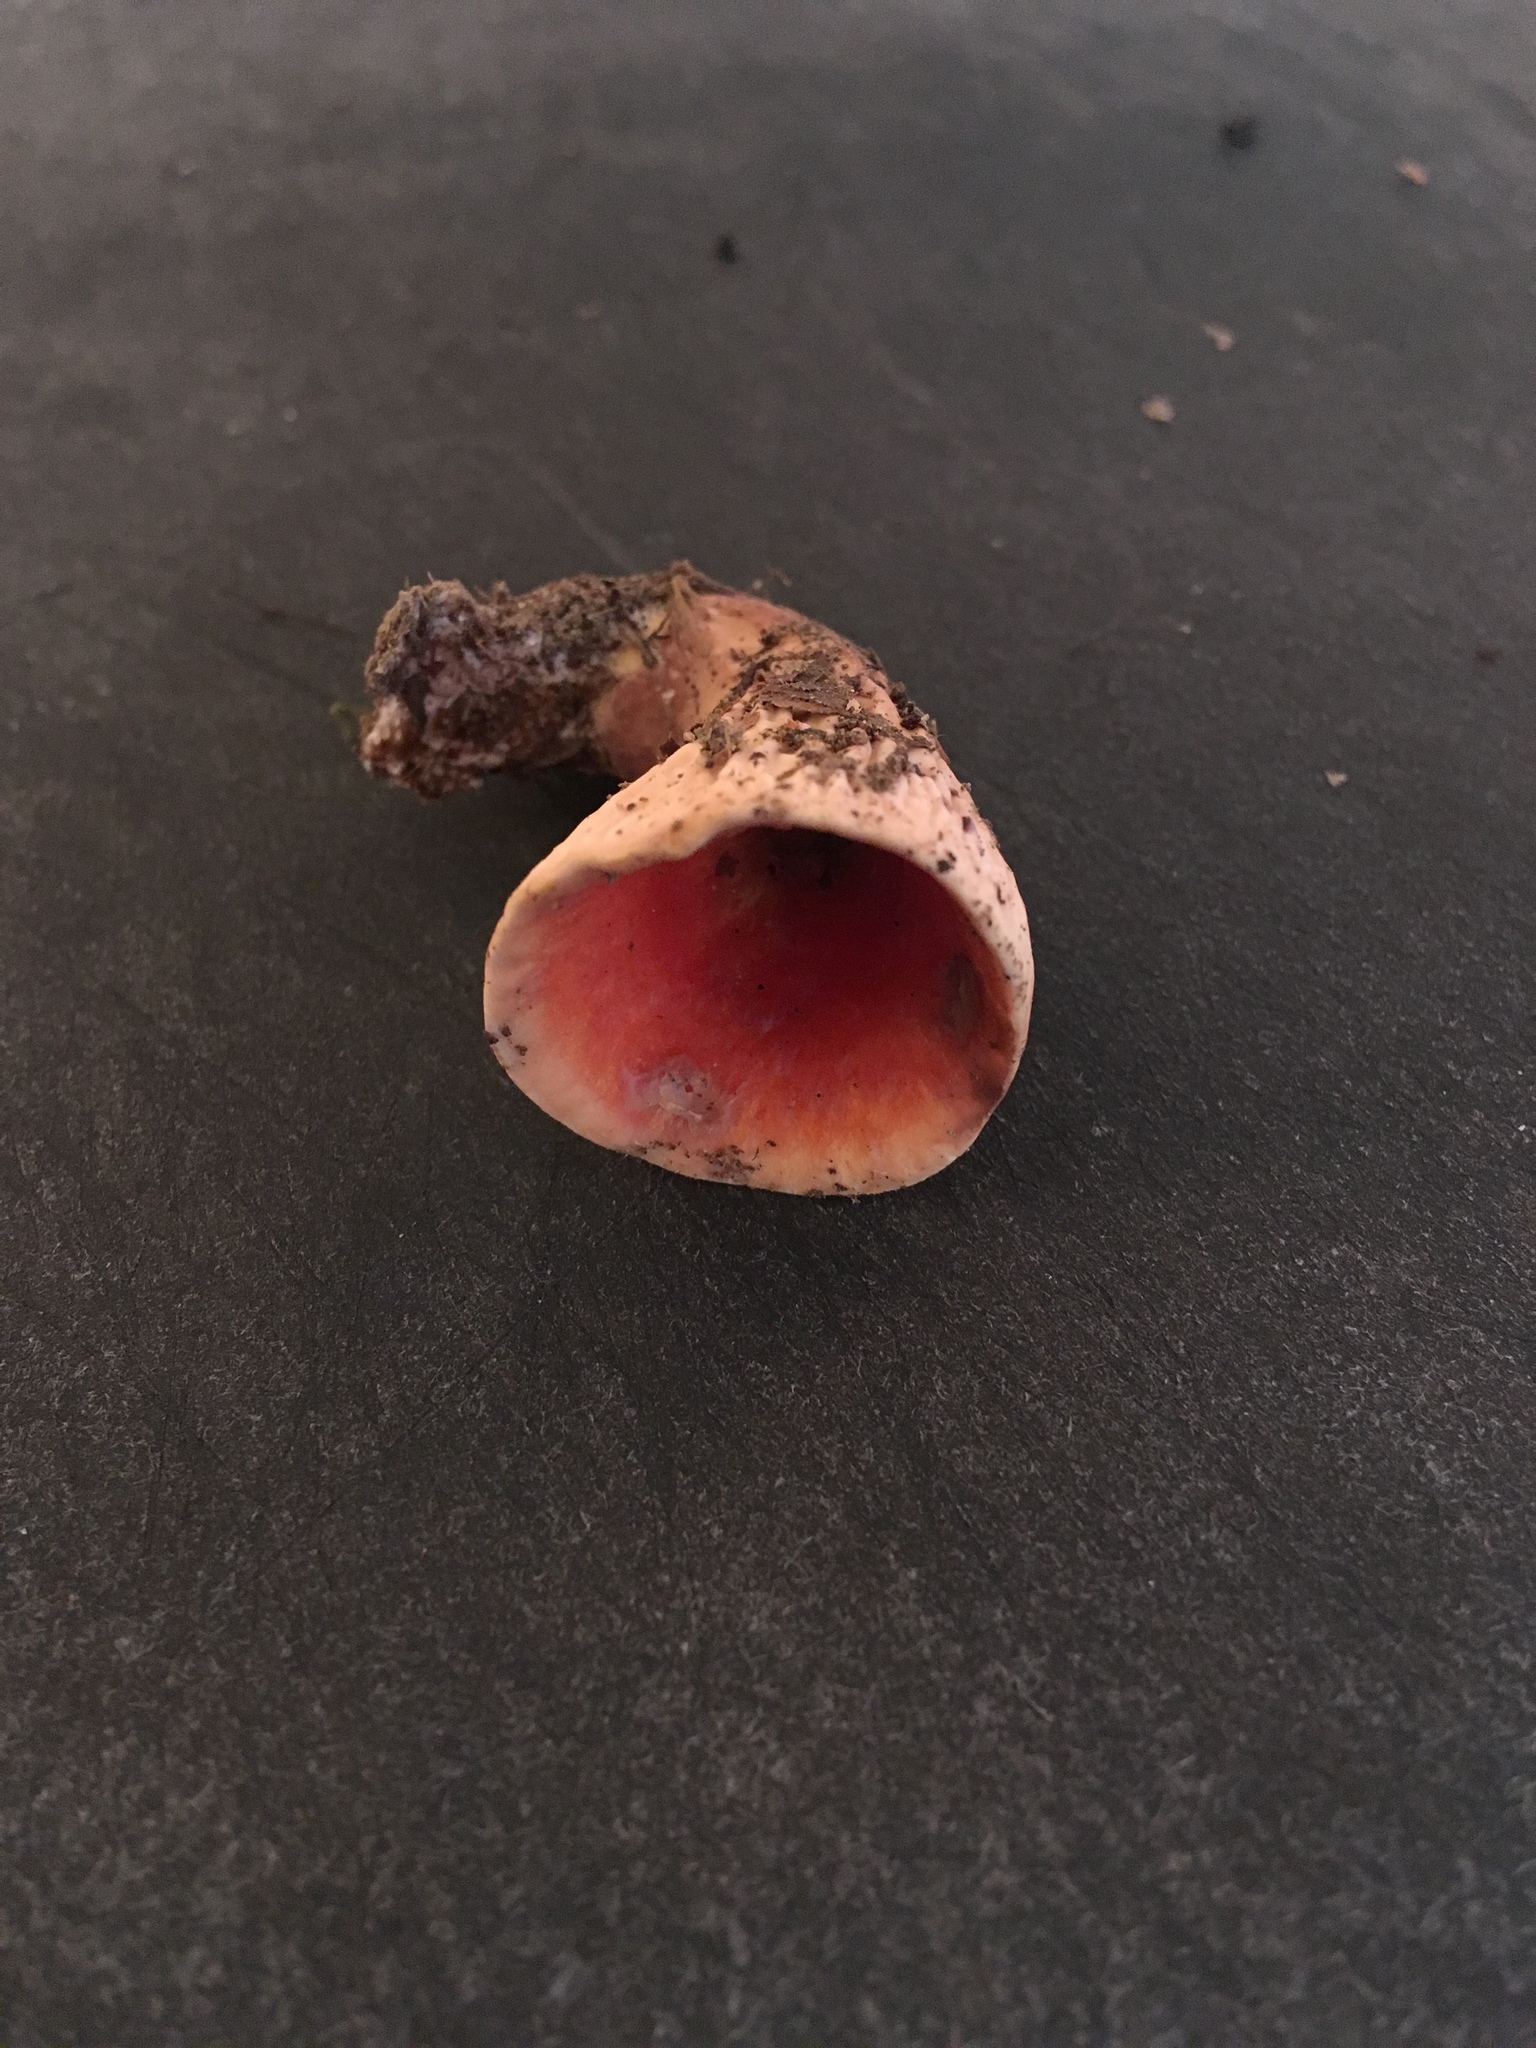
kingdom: Fungi
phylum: Basidiomycota
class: Agaricomycetes
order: Gomphales
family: Gomphaceae
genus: Turbinellus
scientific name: Turbinellus floccosus
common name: Scaly chanterelle
